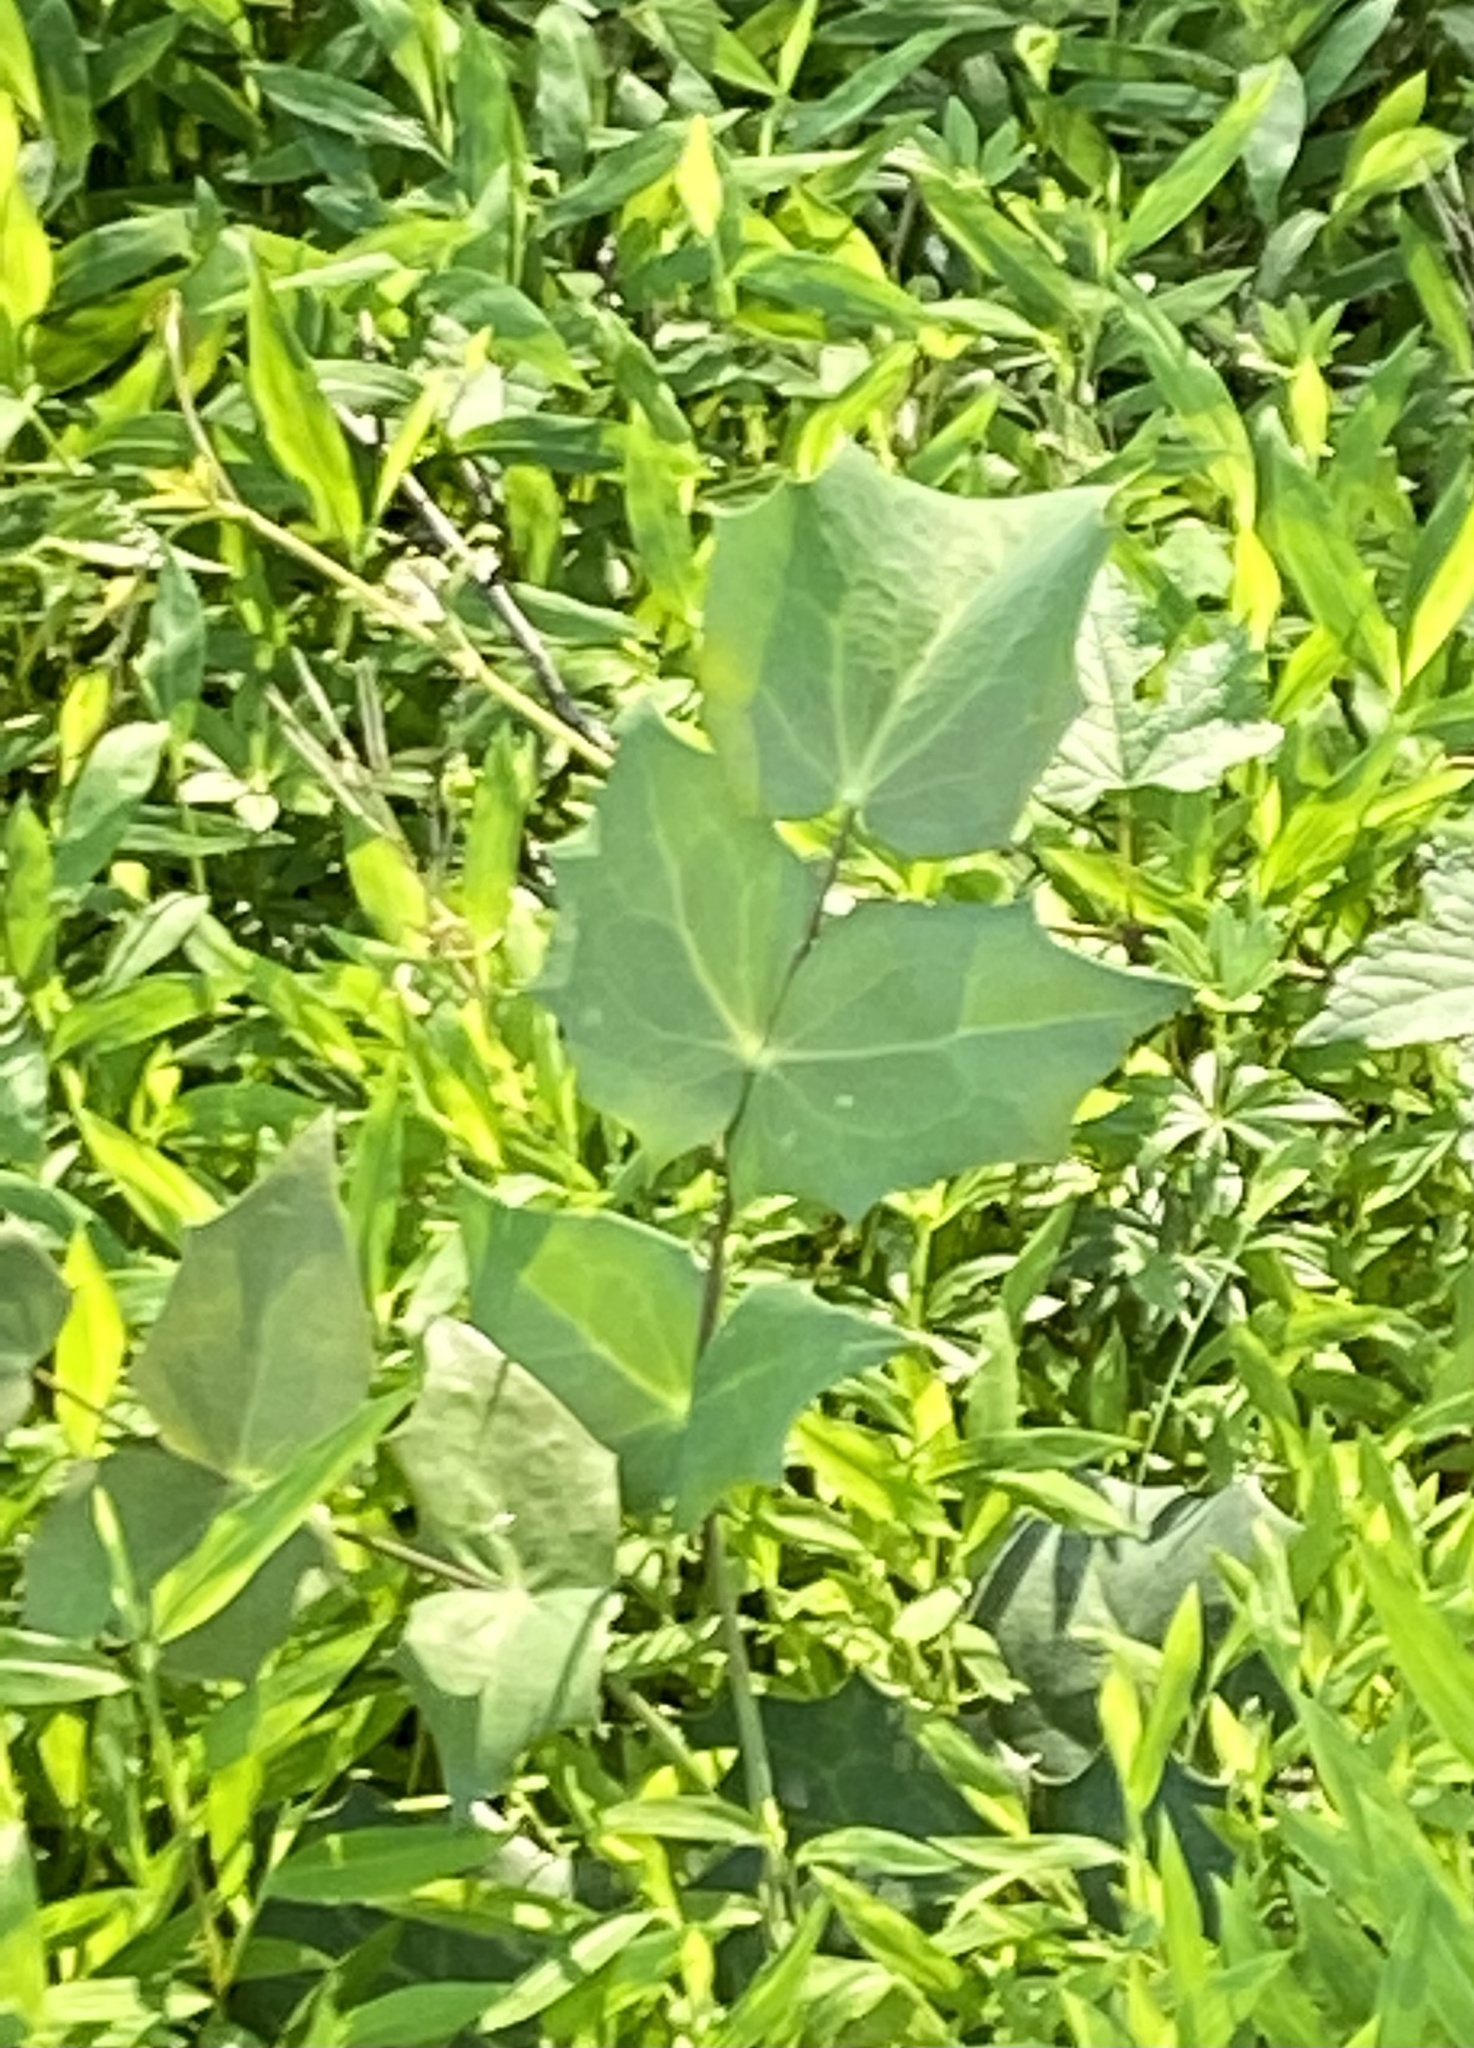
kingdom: Plantae
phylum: Tracheophyta
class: Magnoliopsida
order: Ranunculales
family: Berberidaceae
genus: Mahonia
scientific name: Mahonia bealei
